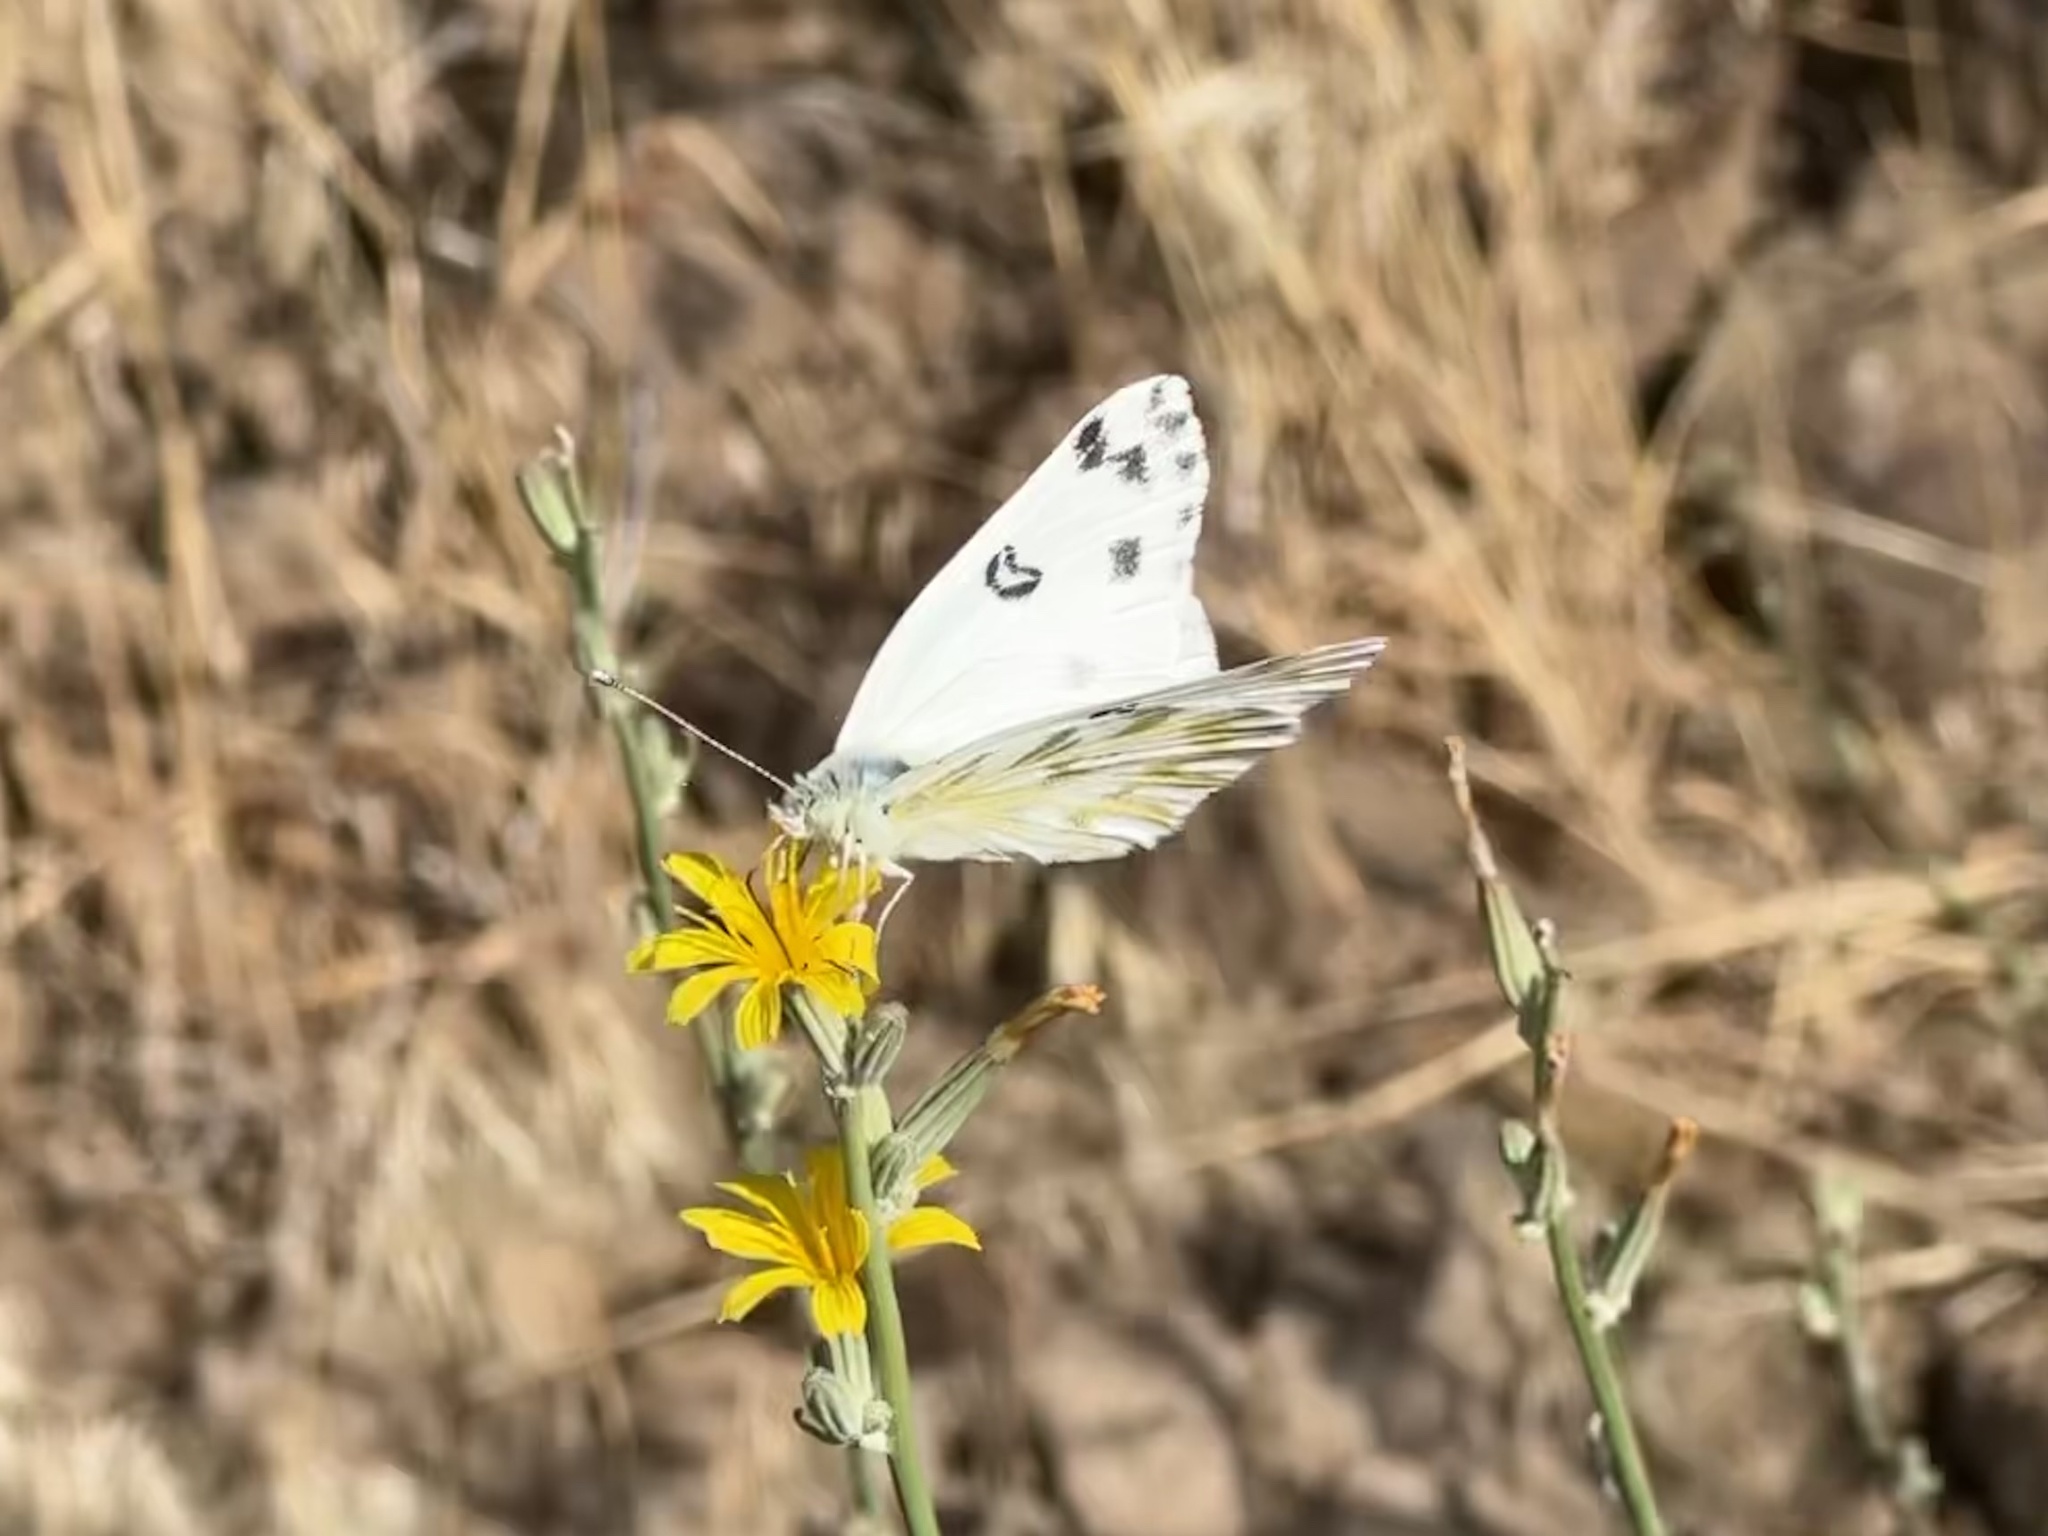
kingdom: Animalia
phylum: Arthropoda
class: Insecta
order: Lepidoptera
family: Pieridae
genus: Pontia
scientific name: Pontia beckerii
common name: Becker's white
